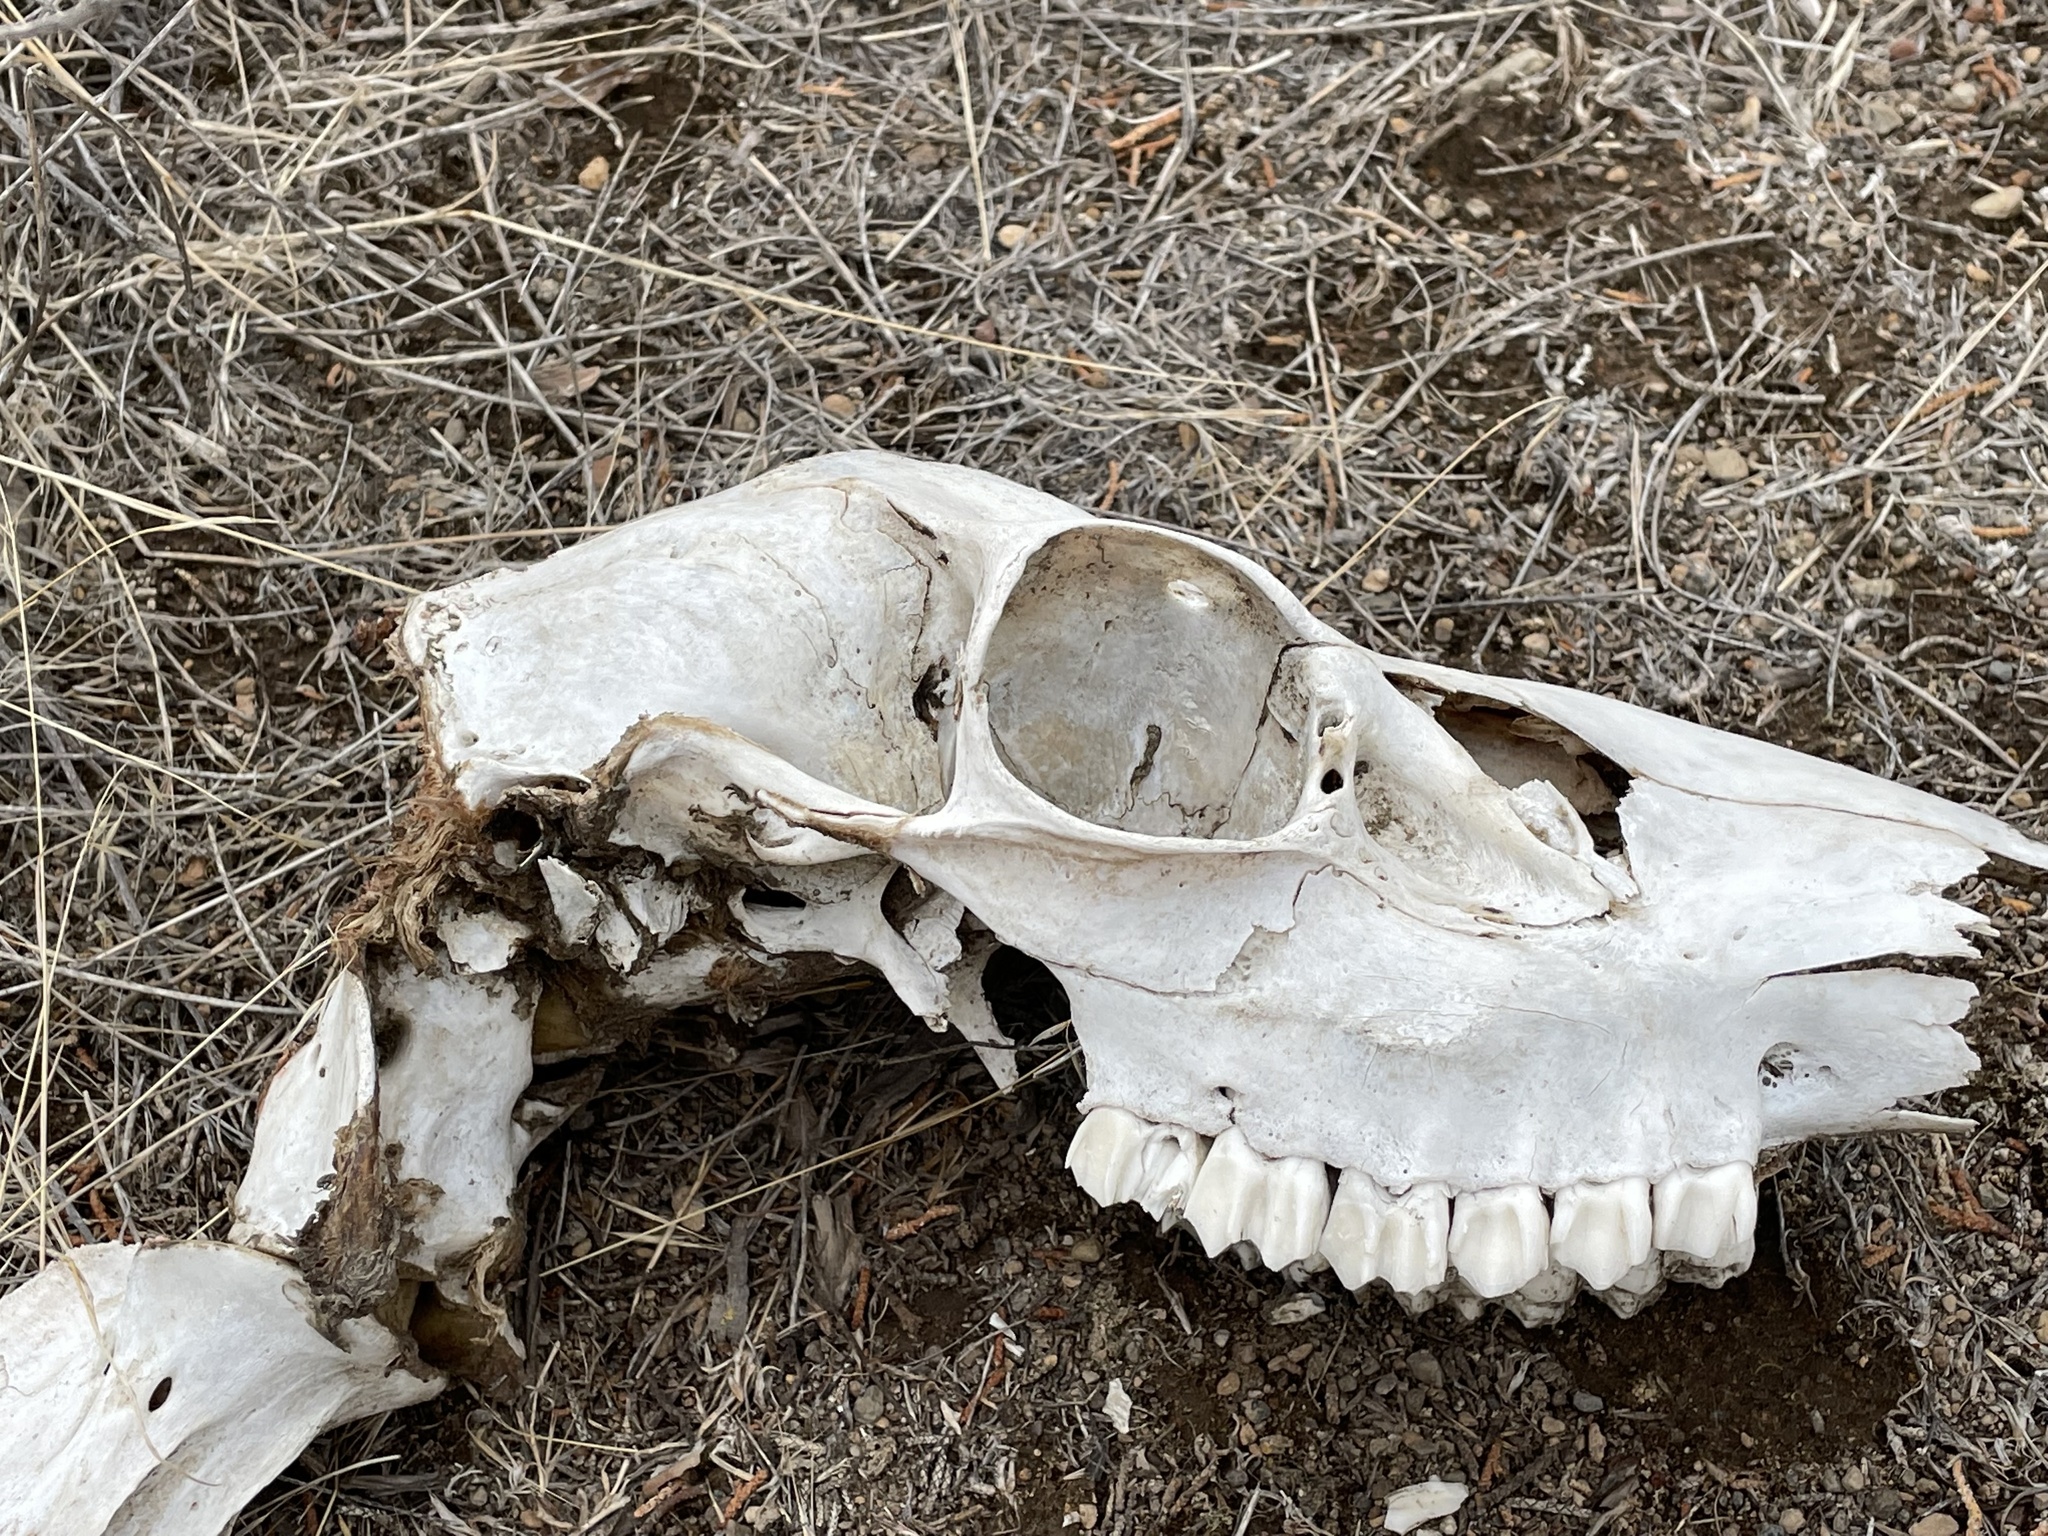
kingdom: Animalia
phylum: Chordata
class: Mammalia
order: Artiodactyla
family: Cervidae
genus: Odocoileus
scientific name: Odocoileus hemionus
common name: Mule deer
